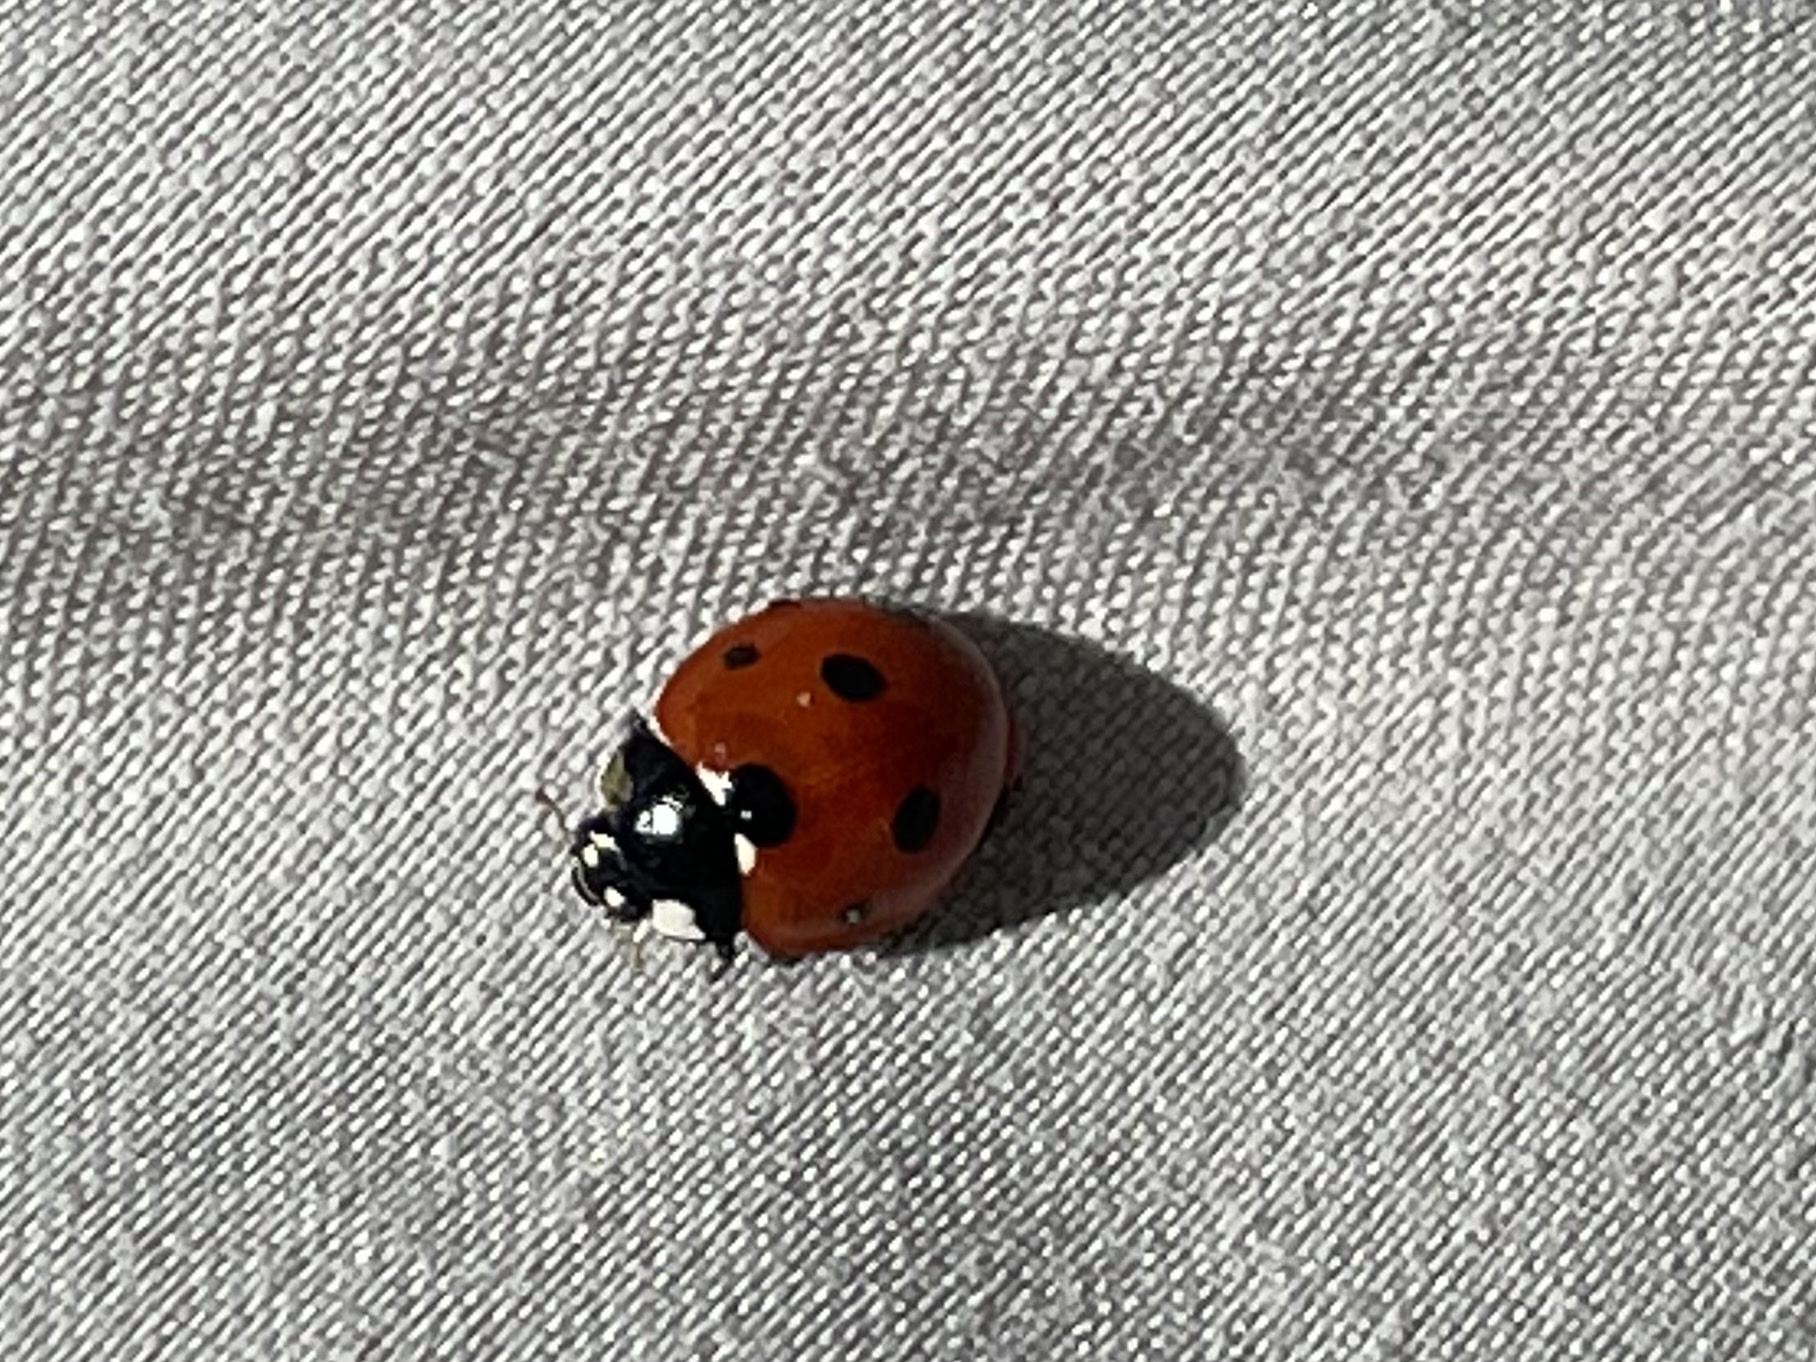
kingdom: Animalia
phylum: Arthropoda
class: Insecta
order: Coleoptera
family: Coccinellidae
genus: Coccinella
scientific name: Coccinella septempunctata
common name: Sevenspotted lady beetle
